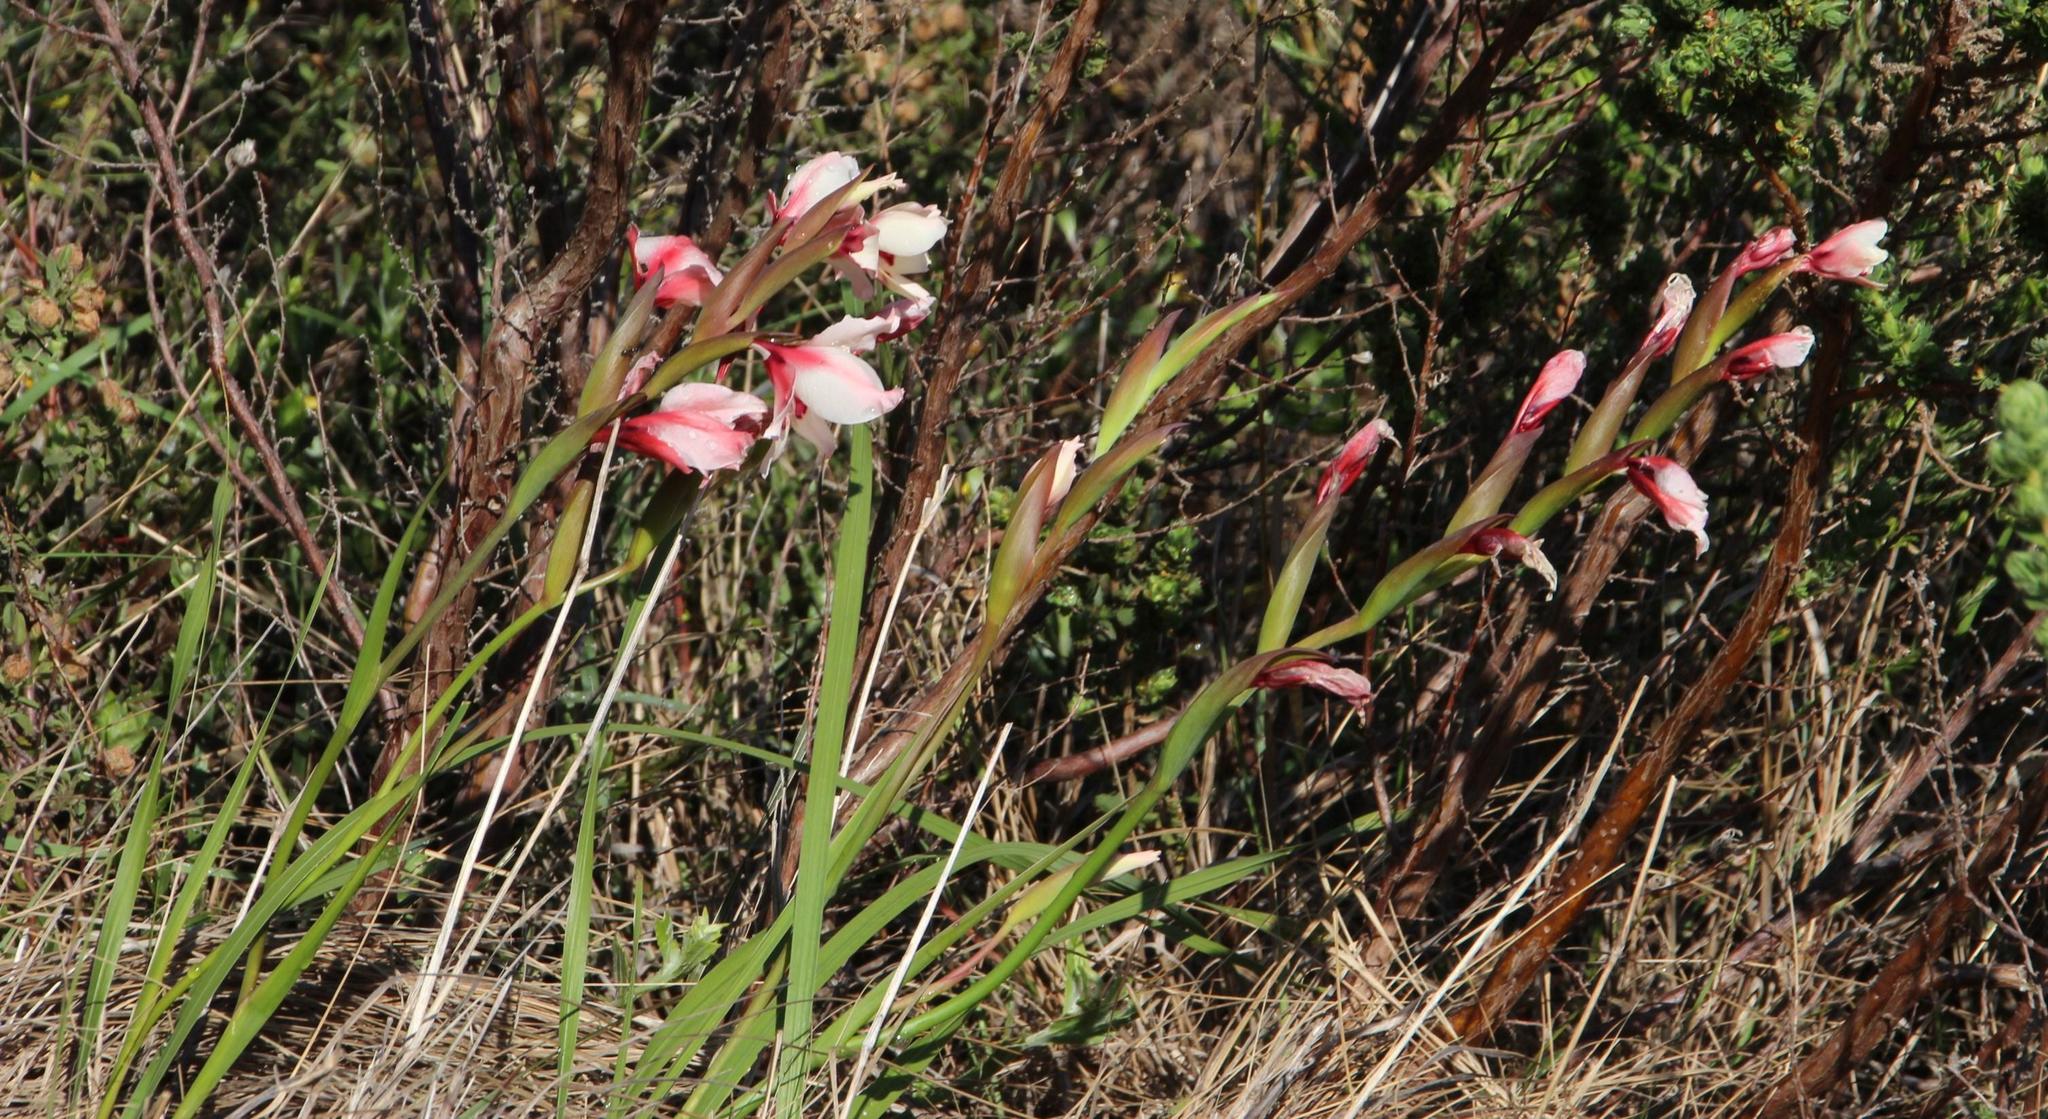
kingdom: Plantae
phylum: Tracheophyta
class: Liliopsida
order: Asparagales
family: Iridaceae
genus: Gladiolus
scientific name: Gladiolus carneus
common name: Painted-lady
